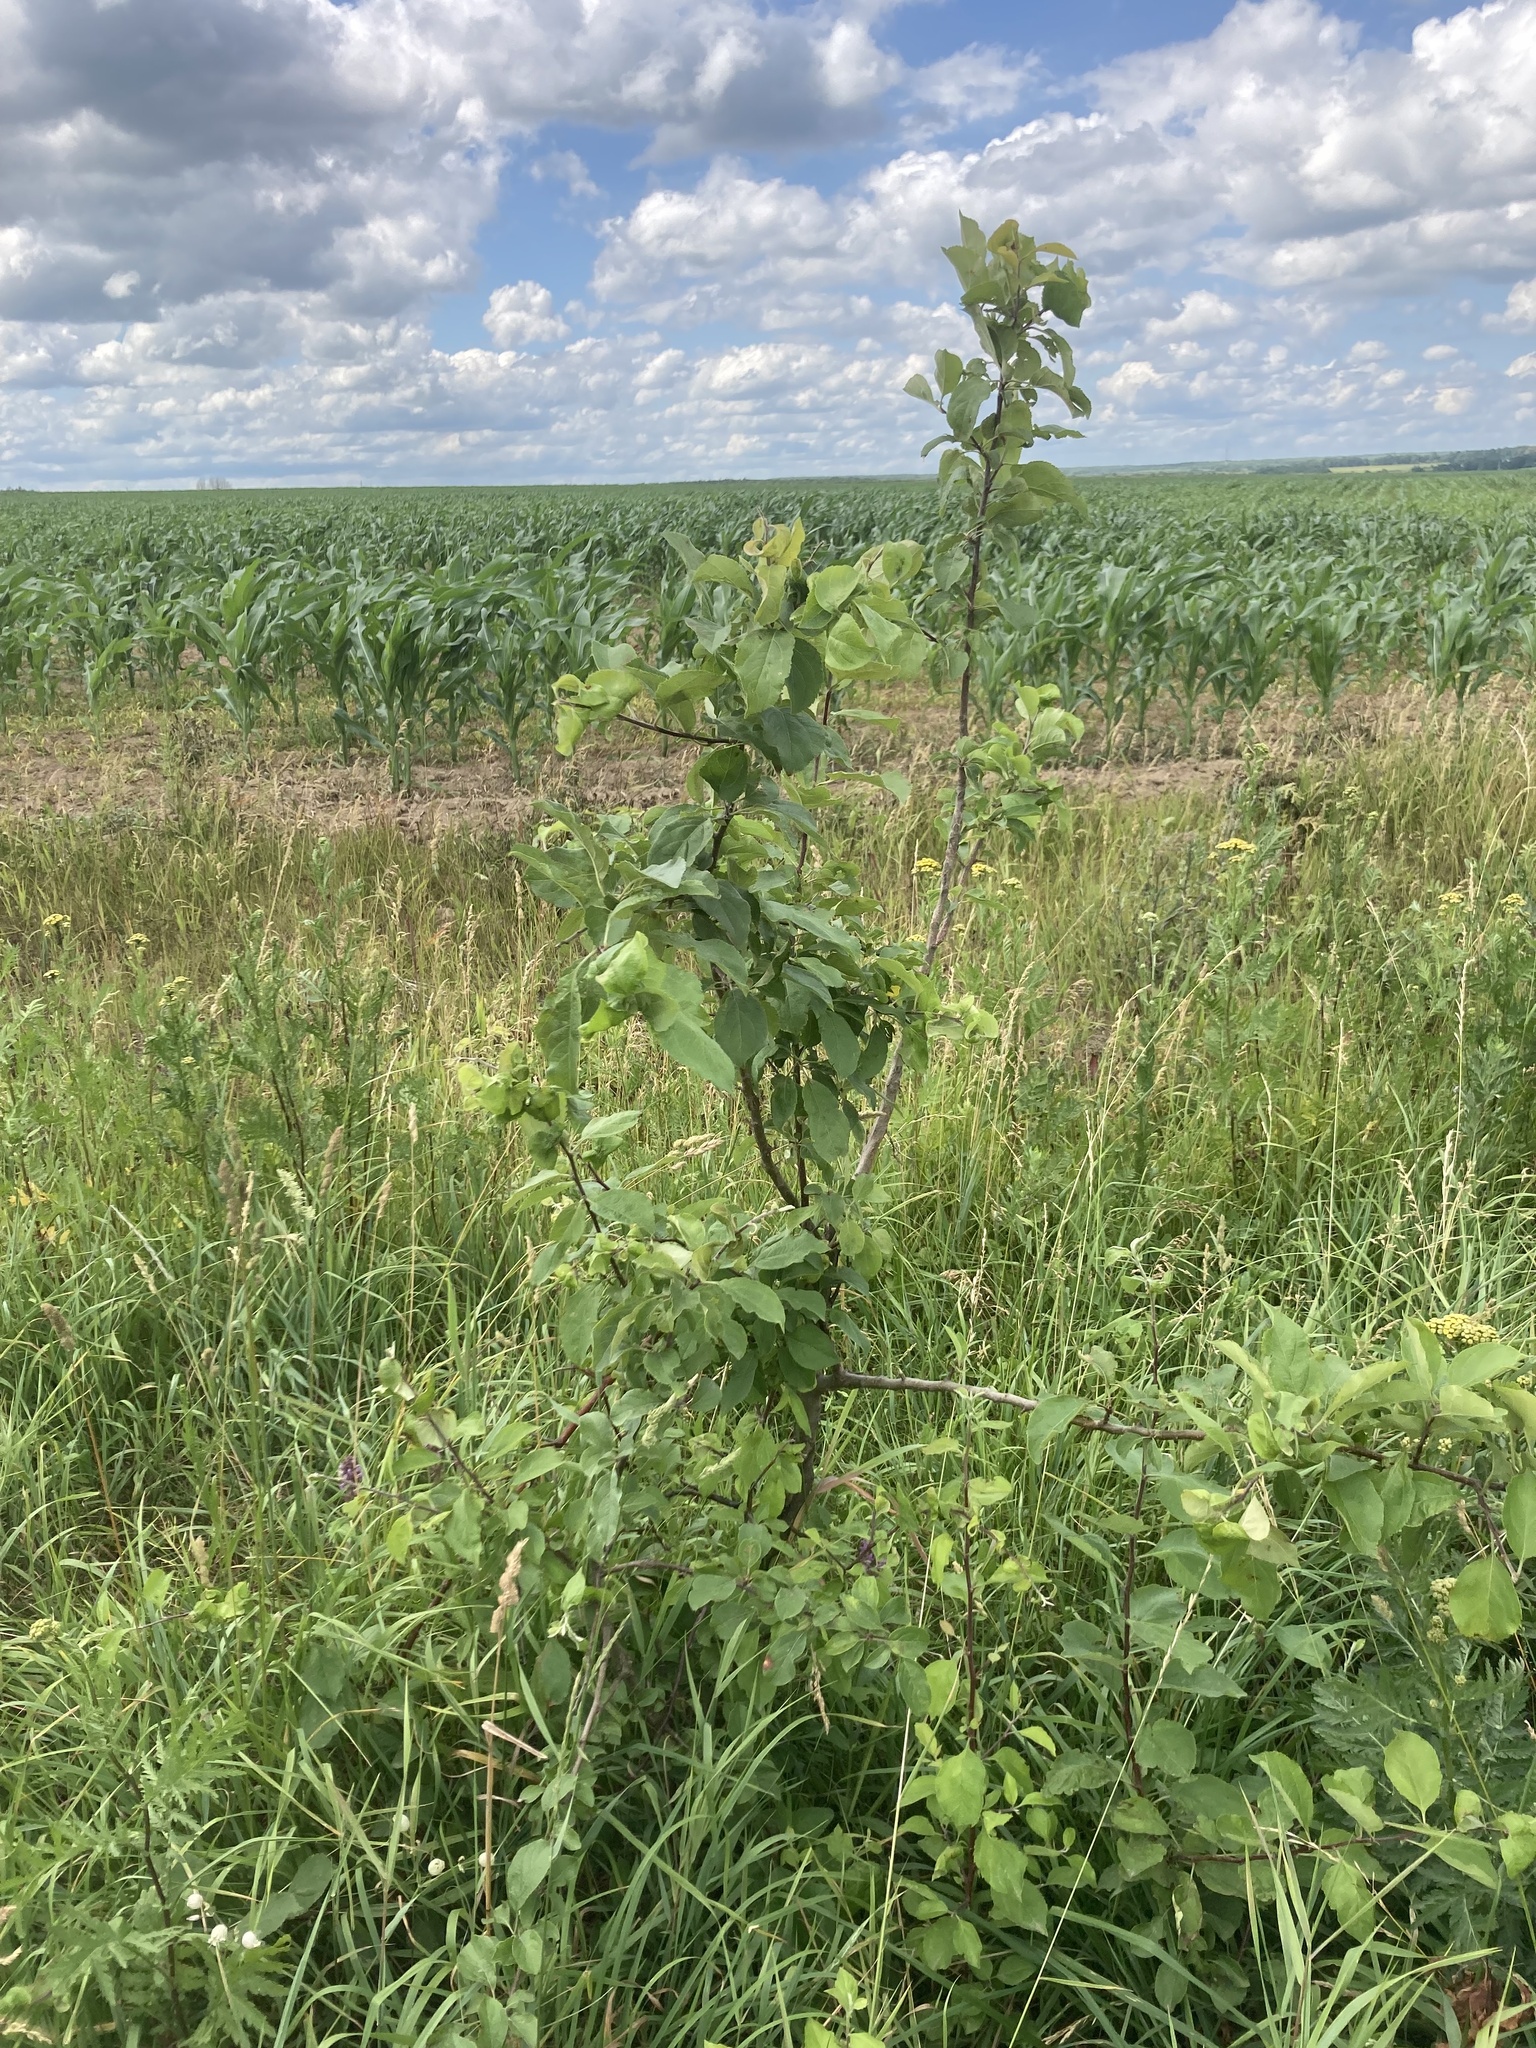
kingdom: Plantae
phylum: Tracheophyta
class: Magnoliopsida
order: Rosales
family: Rosaceae
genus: Malus
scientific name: Malus domestica
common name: Apple
